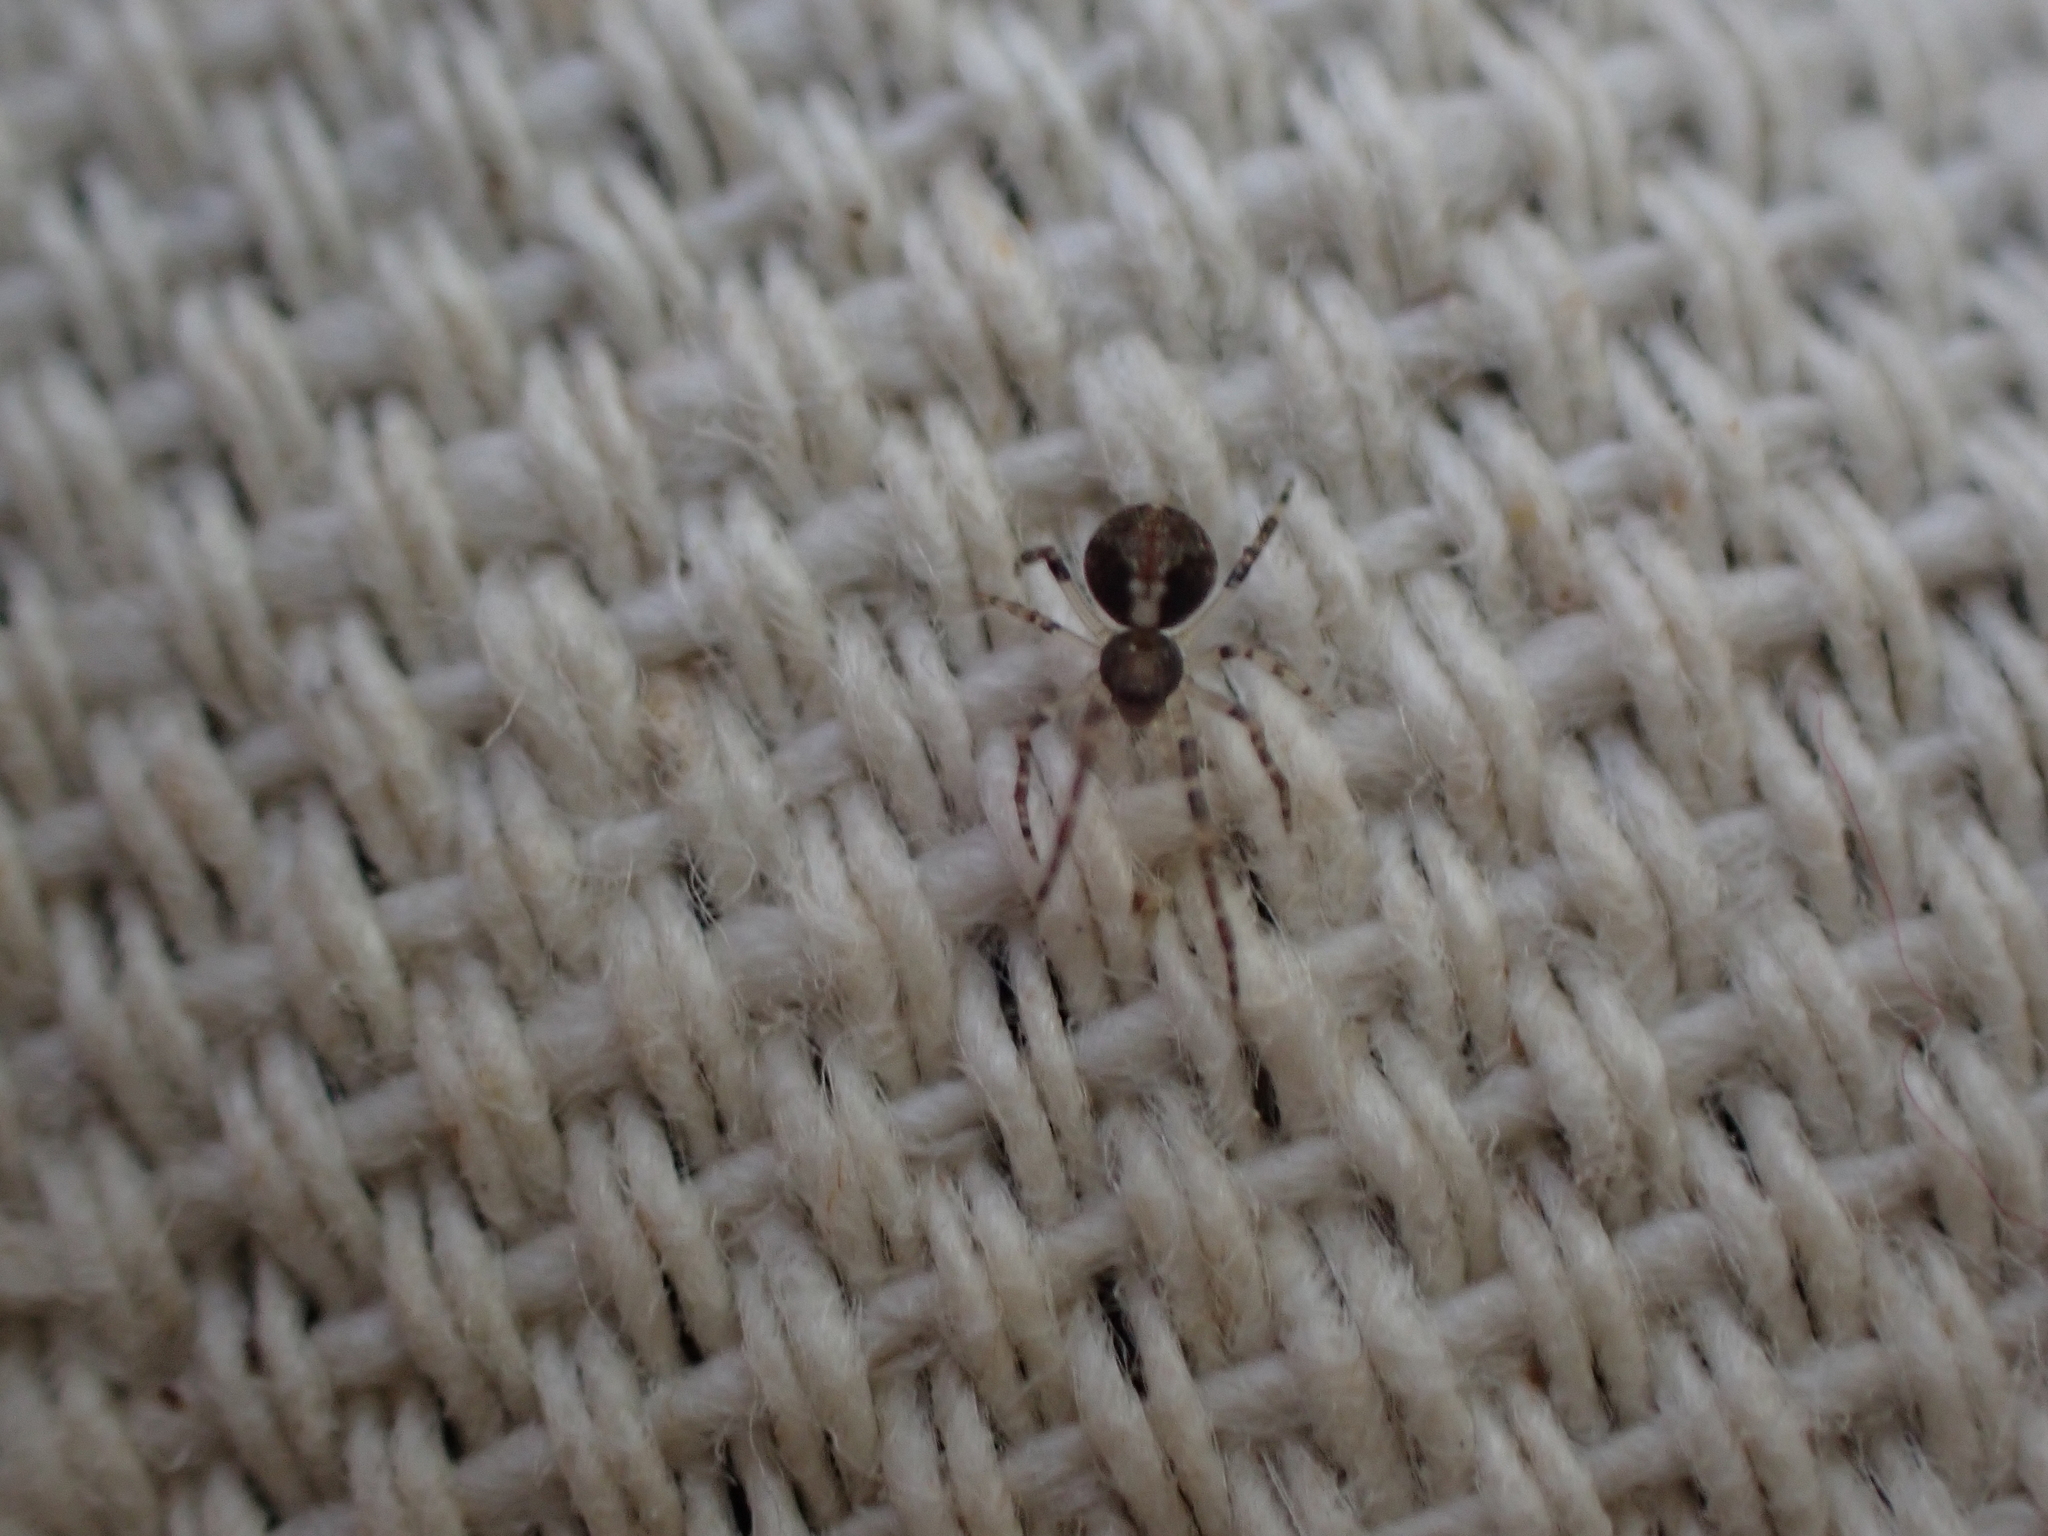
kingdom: Animalia
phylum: Arthropoda
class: Arachnida
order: Araneae
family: Theridiidae
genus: Yunohamella
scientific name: Yunohamella lyrica
